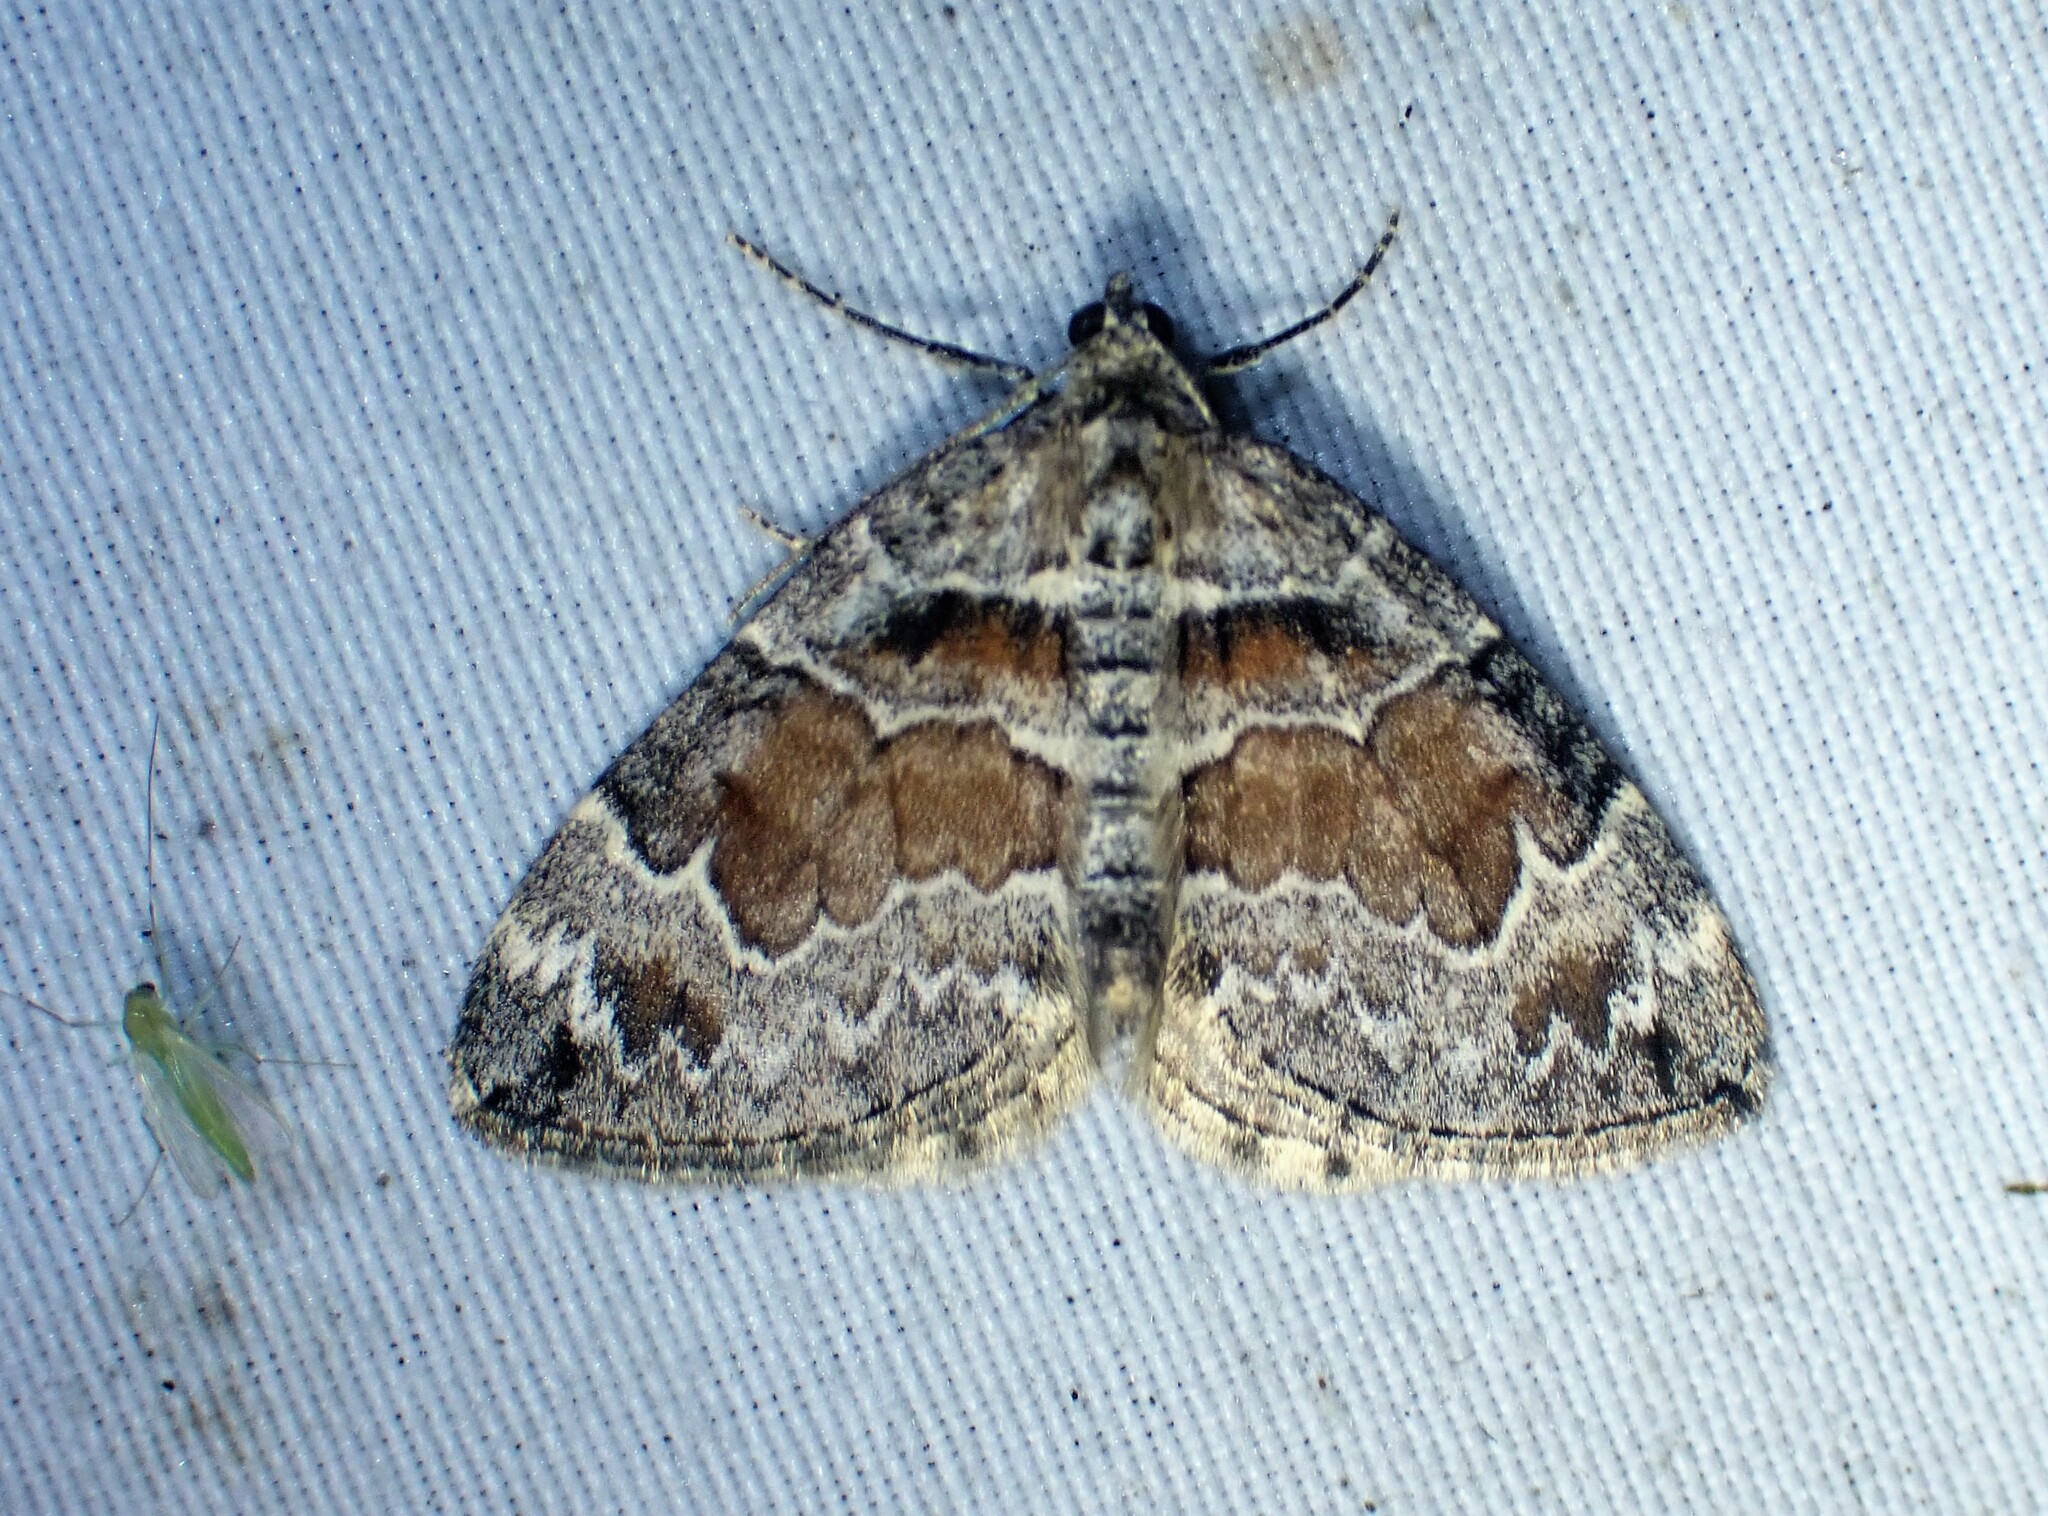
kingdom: Animalia
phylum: Arthropoda
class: Insecta
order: Lepidoptera
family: Geometridae
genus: Dysstroma
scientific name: Dysstroma hersiliata
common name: Orange-barred carpet
